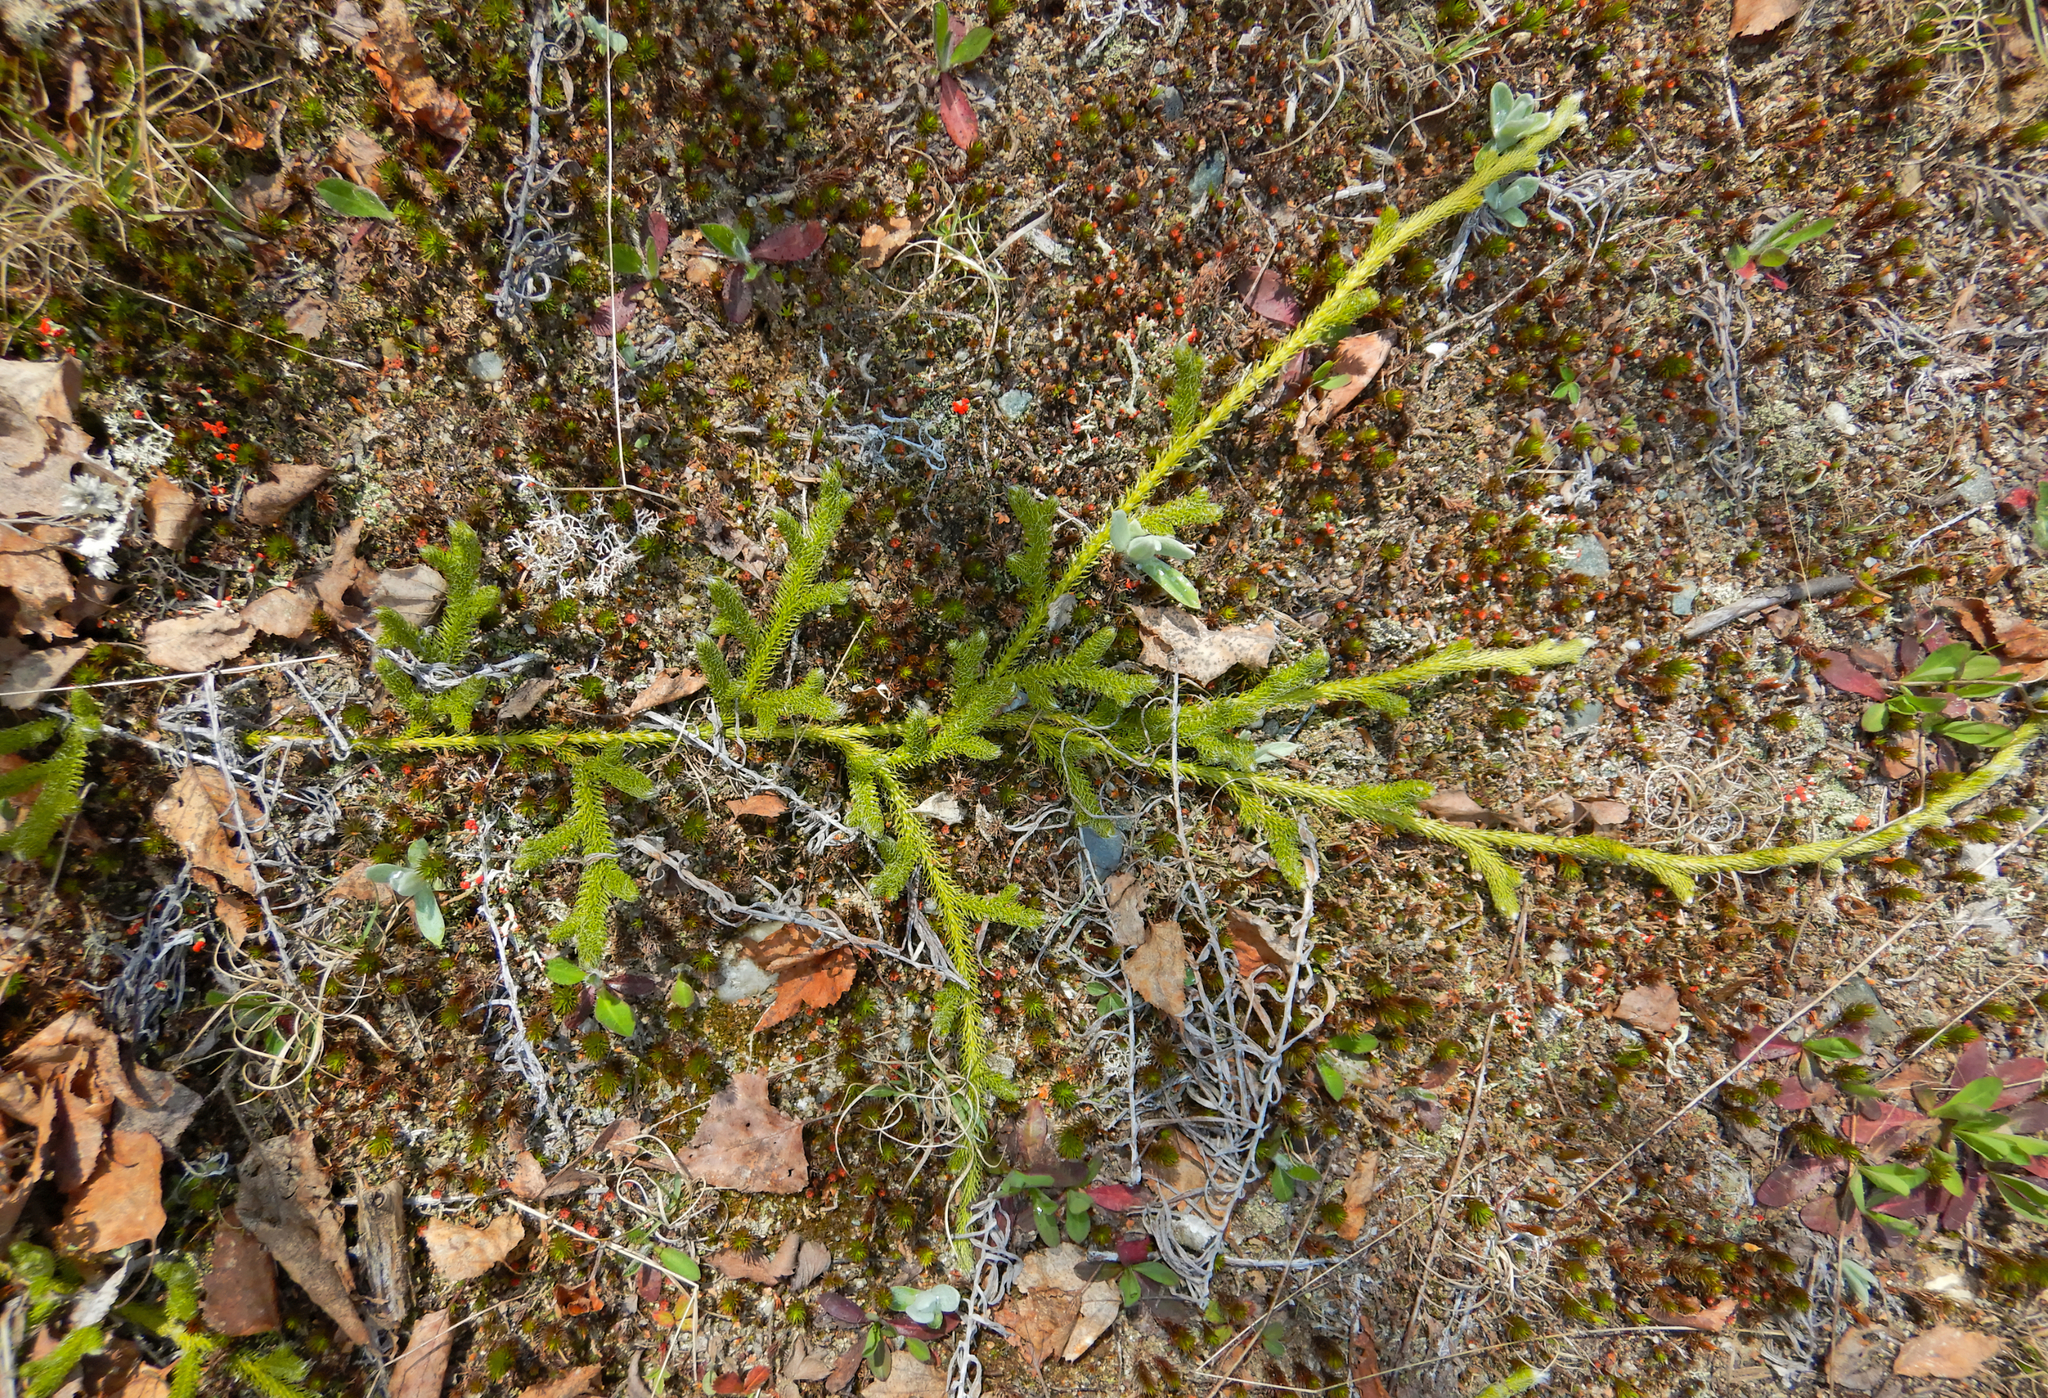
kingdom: Plantae
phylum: Tracheophyta
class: Lycopodiopsida
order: Lycopodiales
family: Lycopodiaceae
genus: Lycopodium
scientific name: Lycopodium lagopus
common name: One-cone clubmoss
